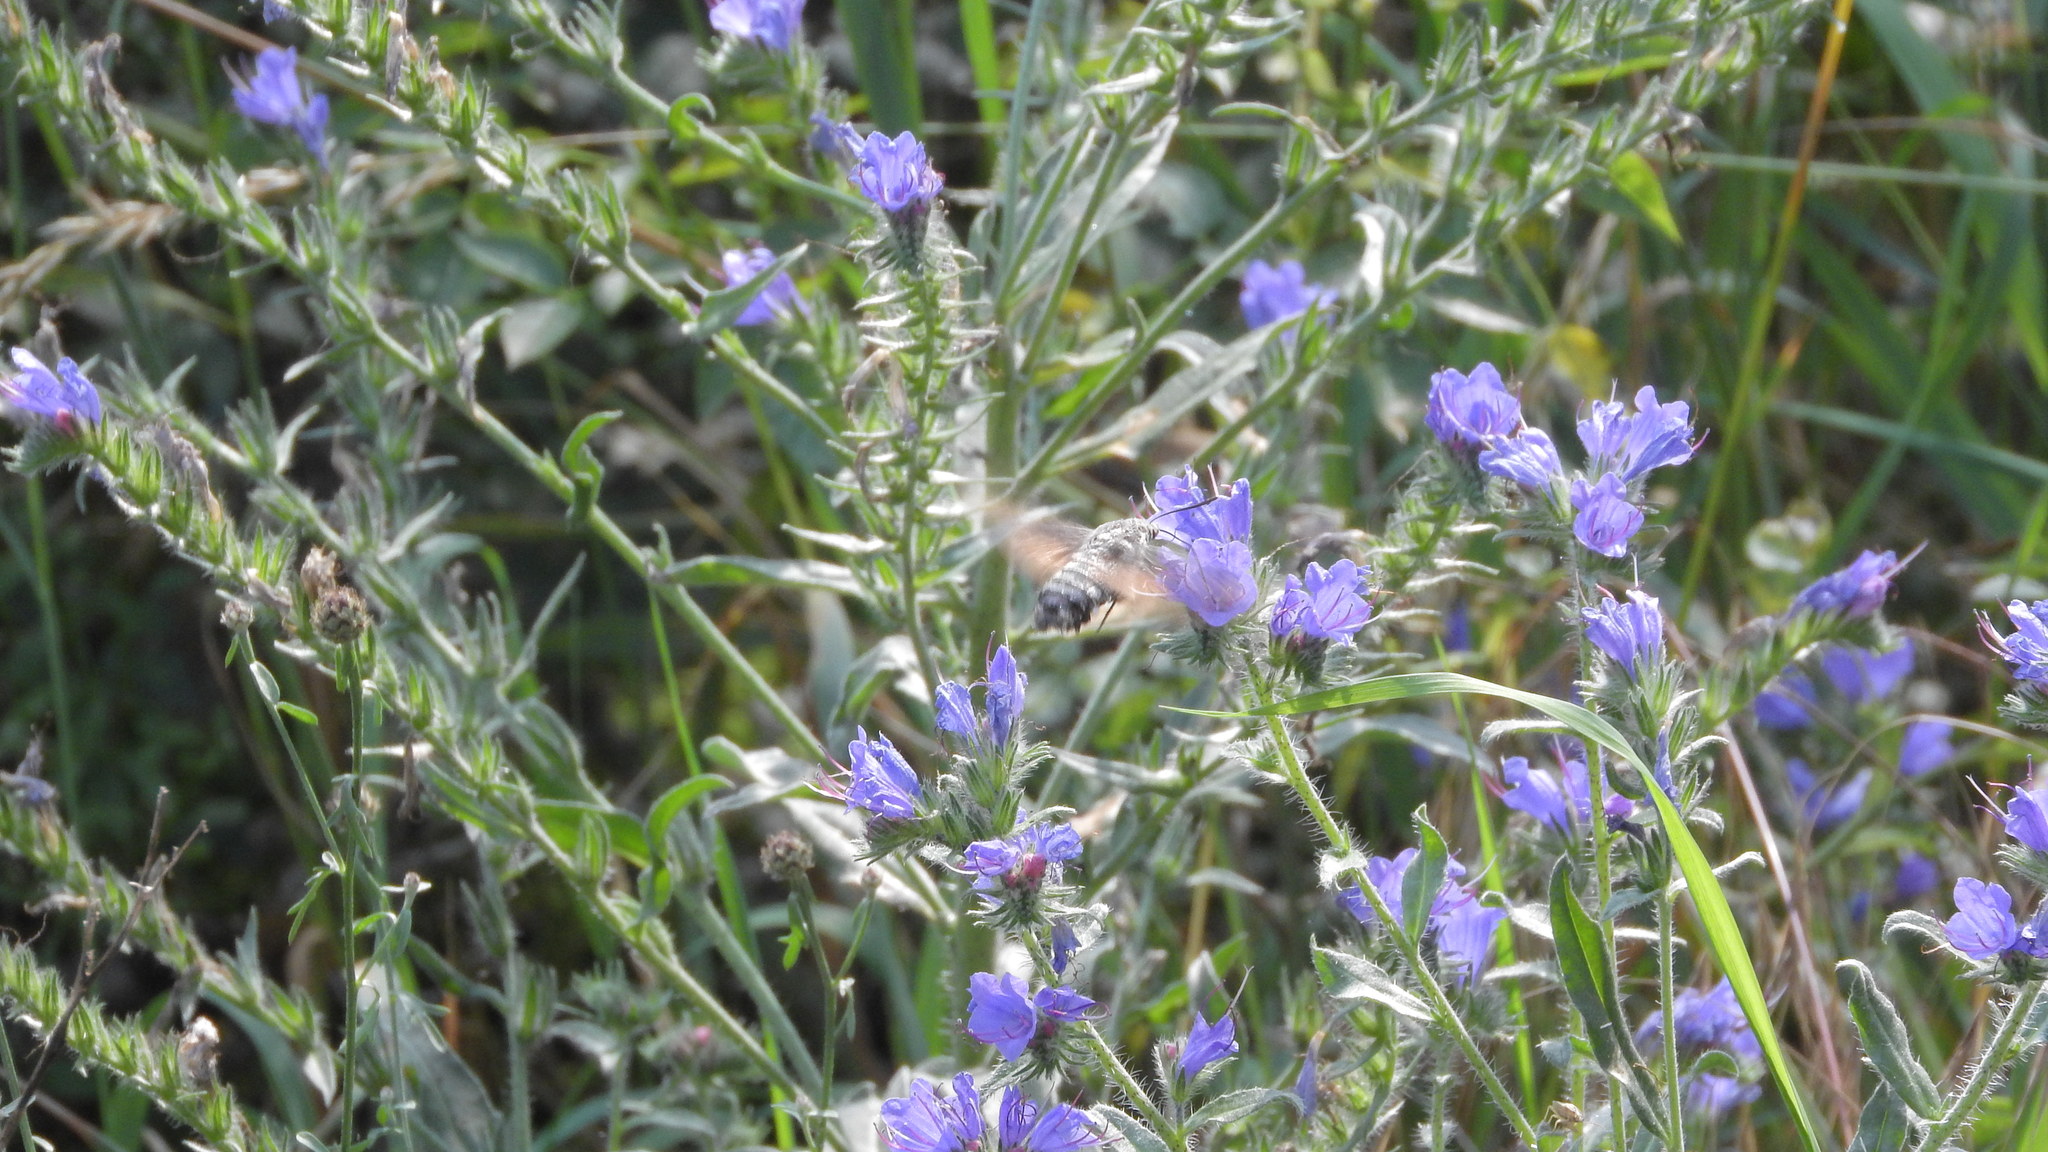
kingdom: Animalia
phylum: Arthropoda
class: Insecta
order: Lepidoptera
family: Sphingidae
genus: Macroglossum
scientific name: Macroglossum stellatarum
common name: Humming-bird hawk-moth
